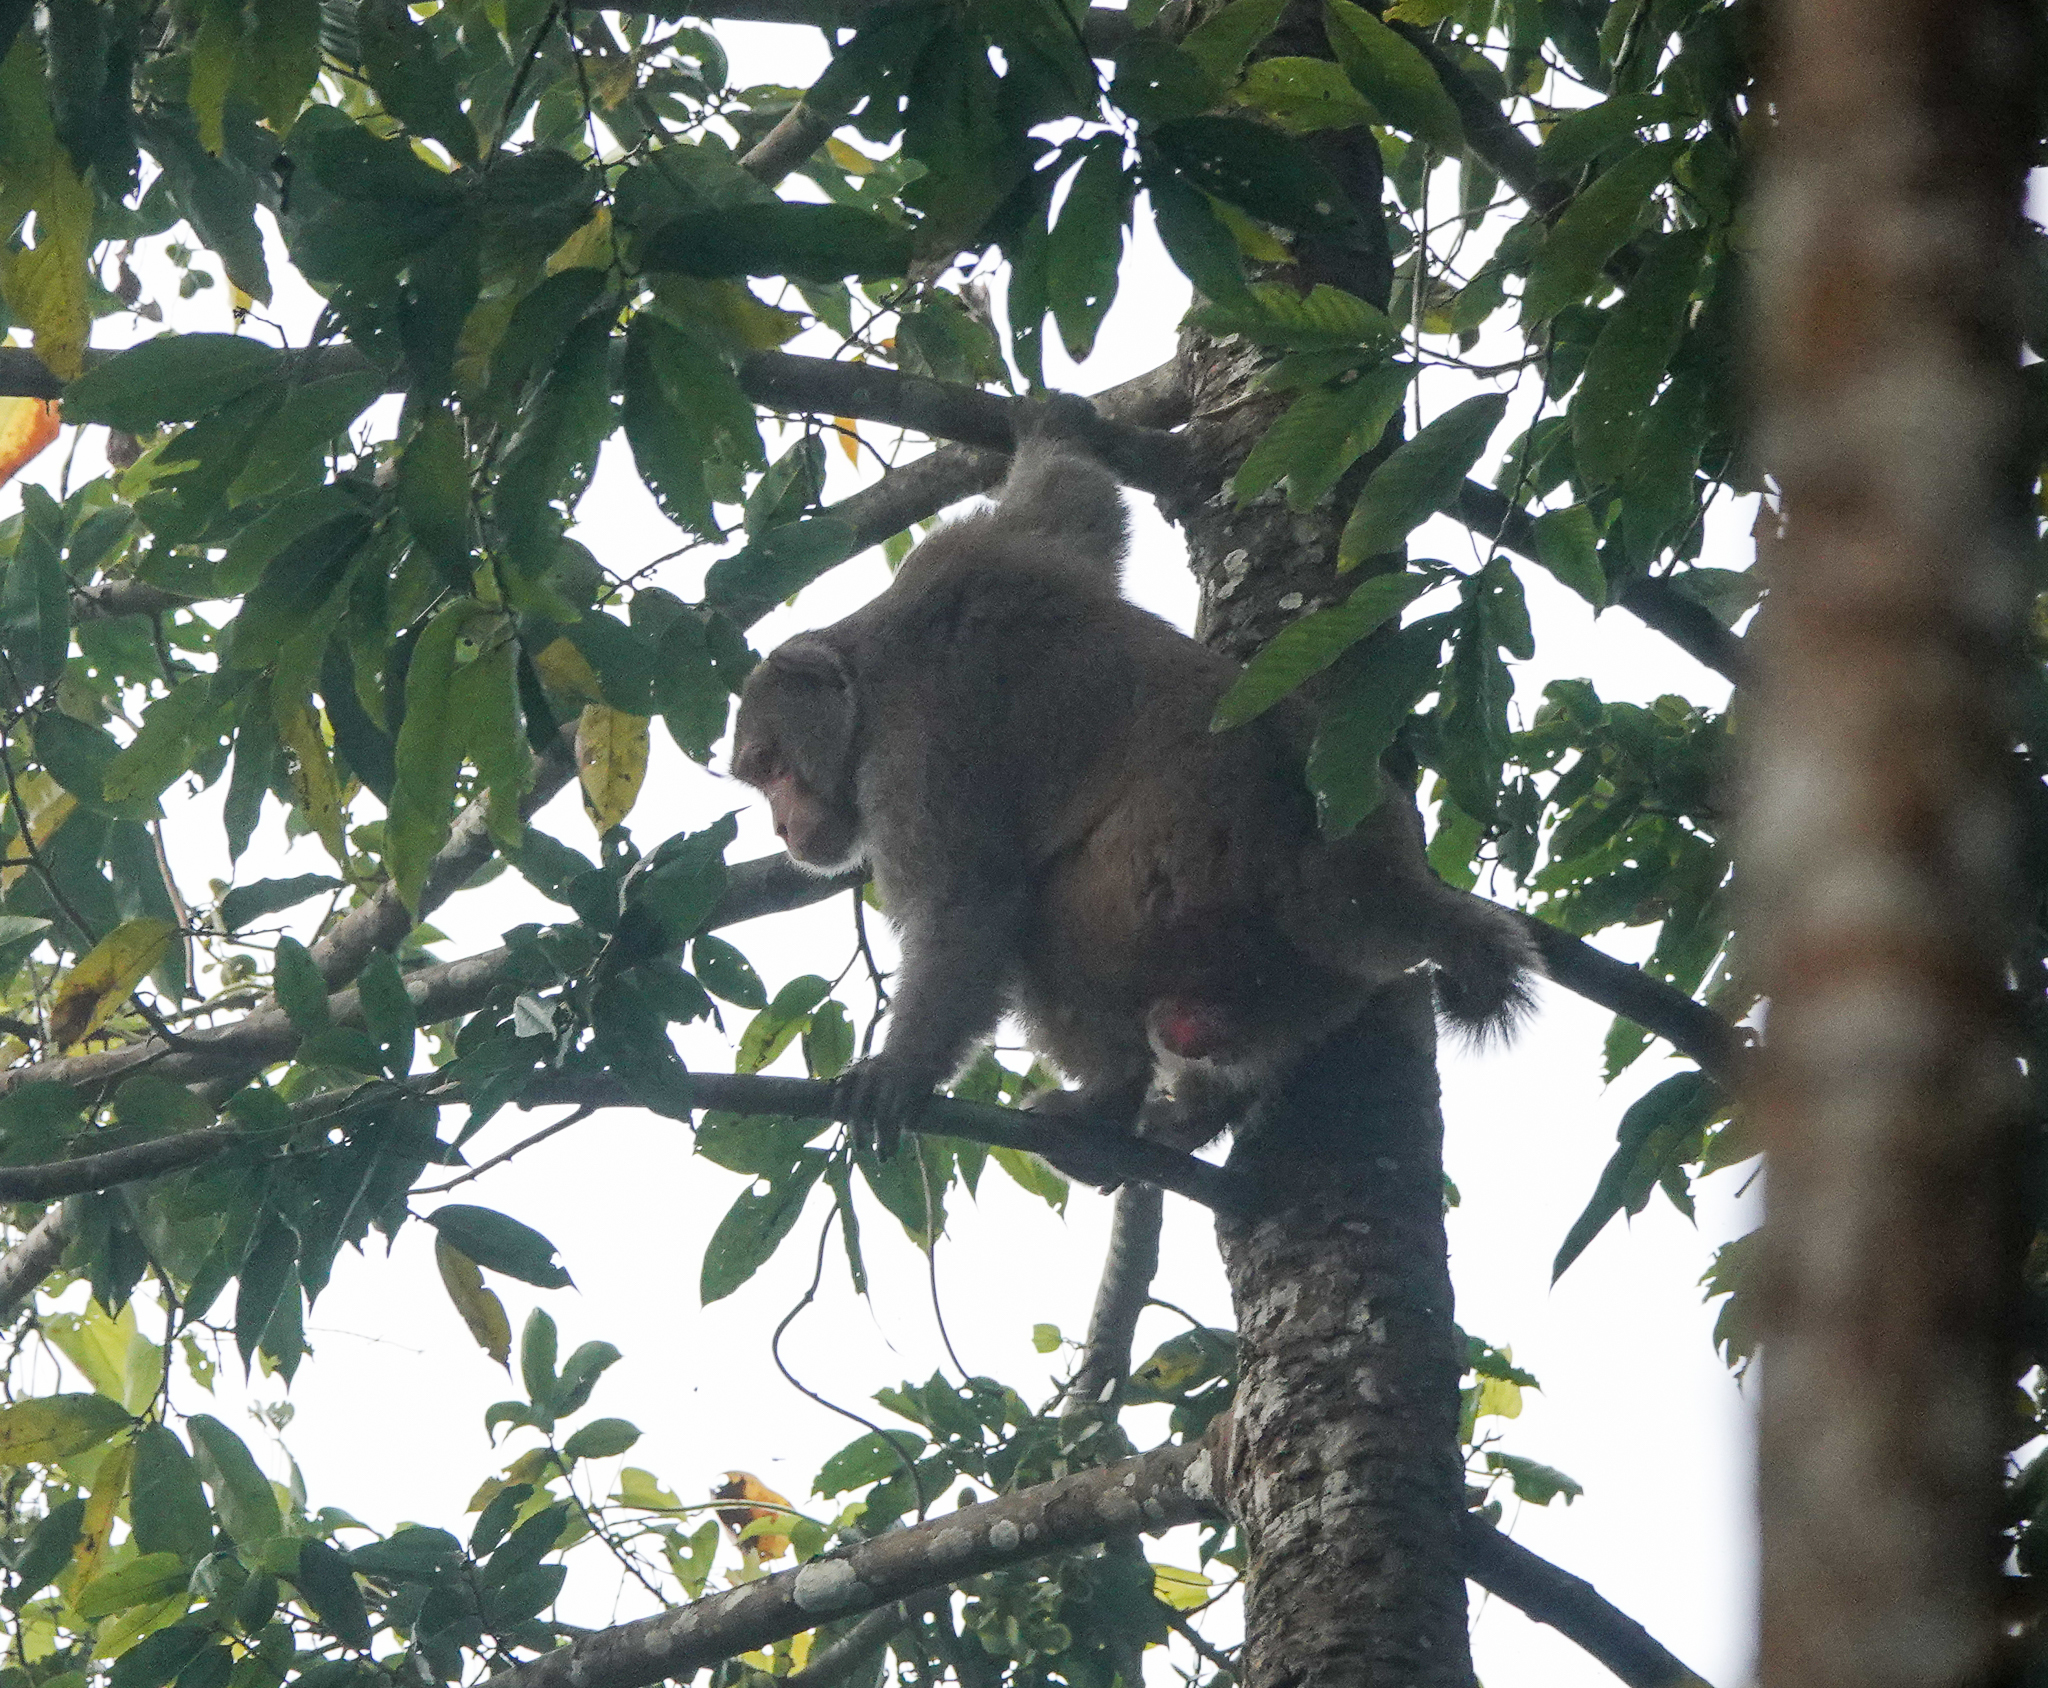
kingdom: Animalia
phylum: Chordata
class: Mammalia
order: Primates
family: Cercopithecidae
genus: Macaca
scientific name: Macaca mulatta
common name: Rhesus monkey
